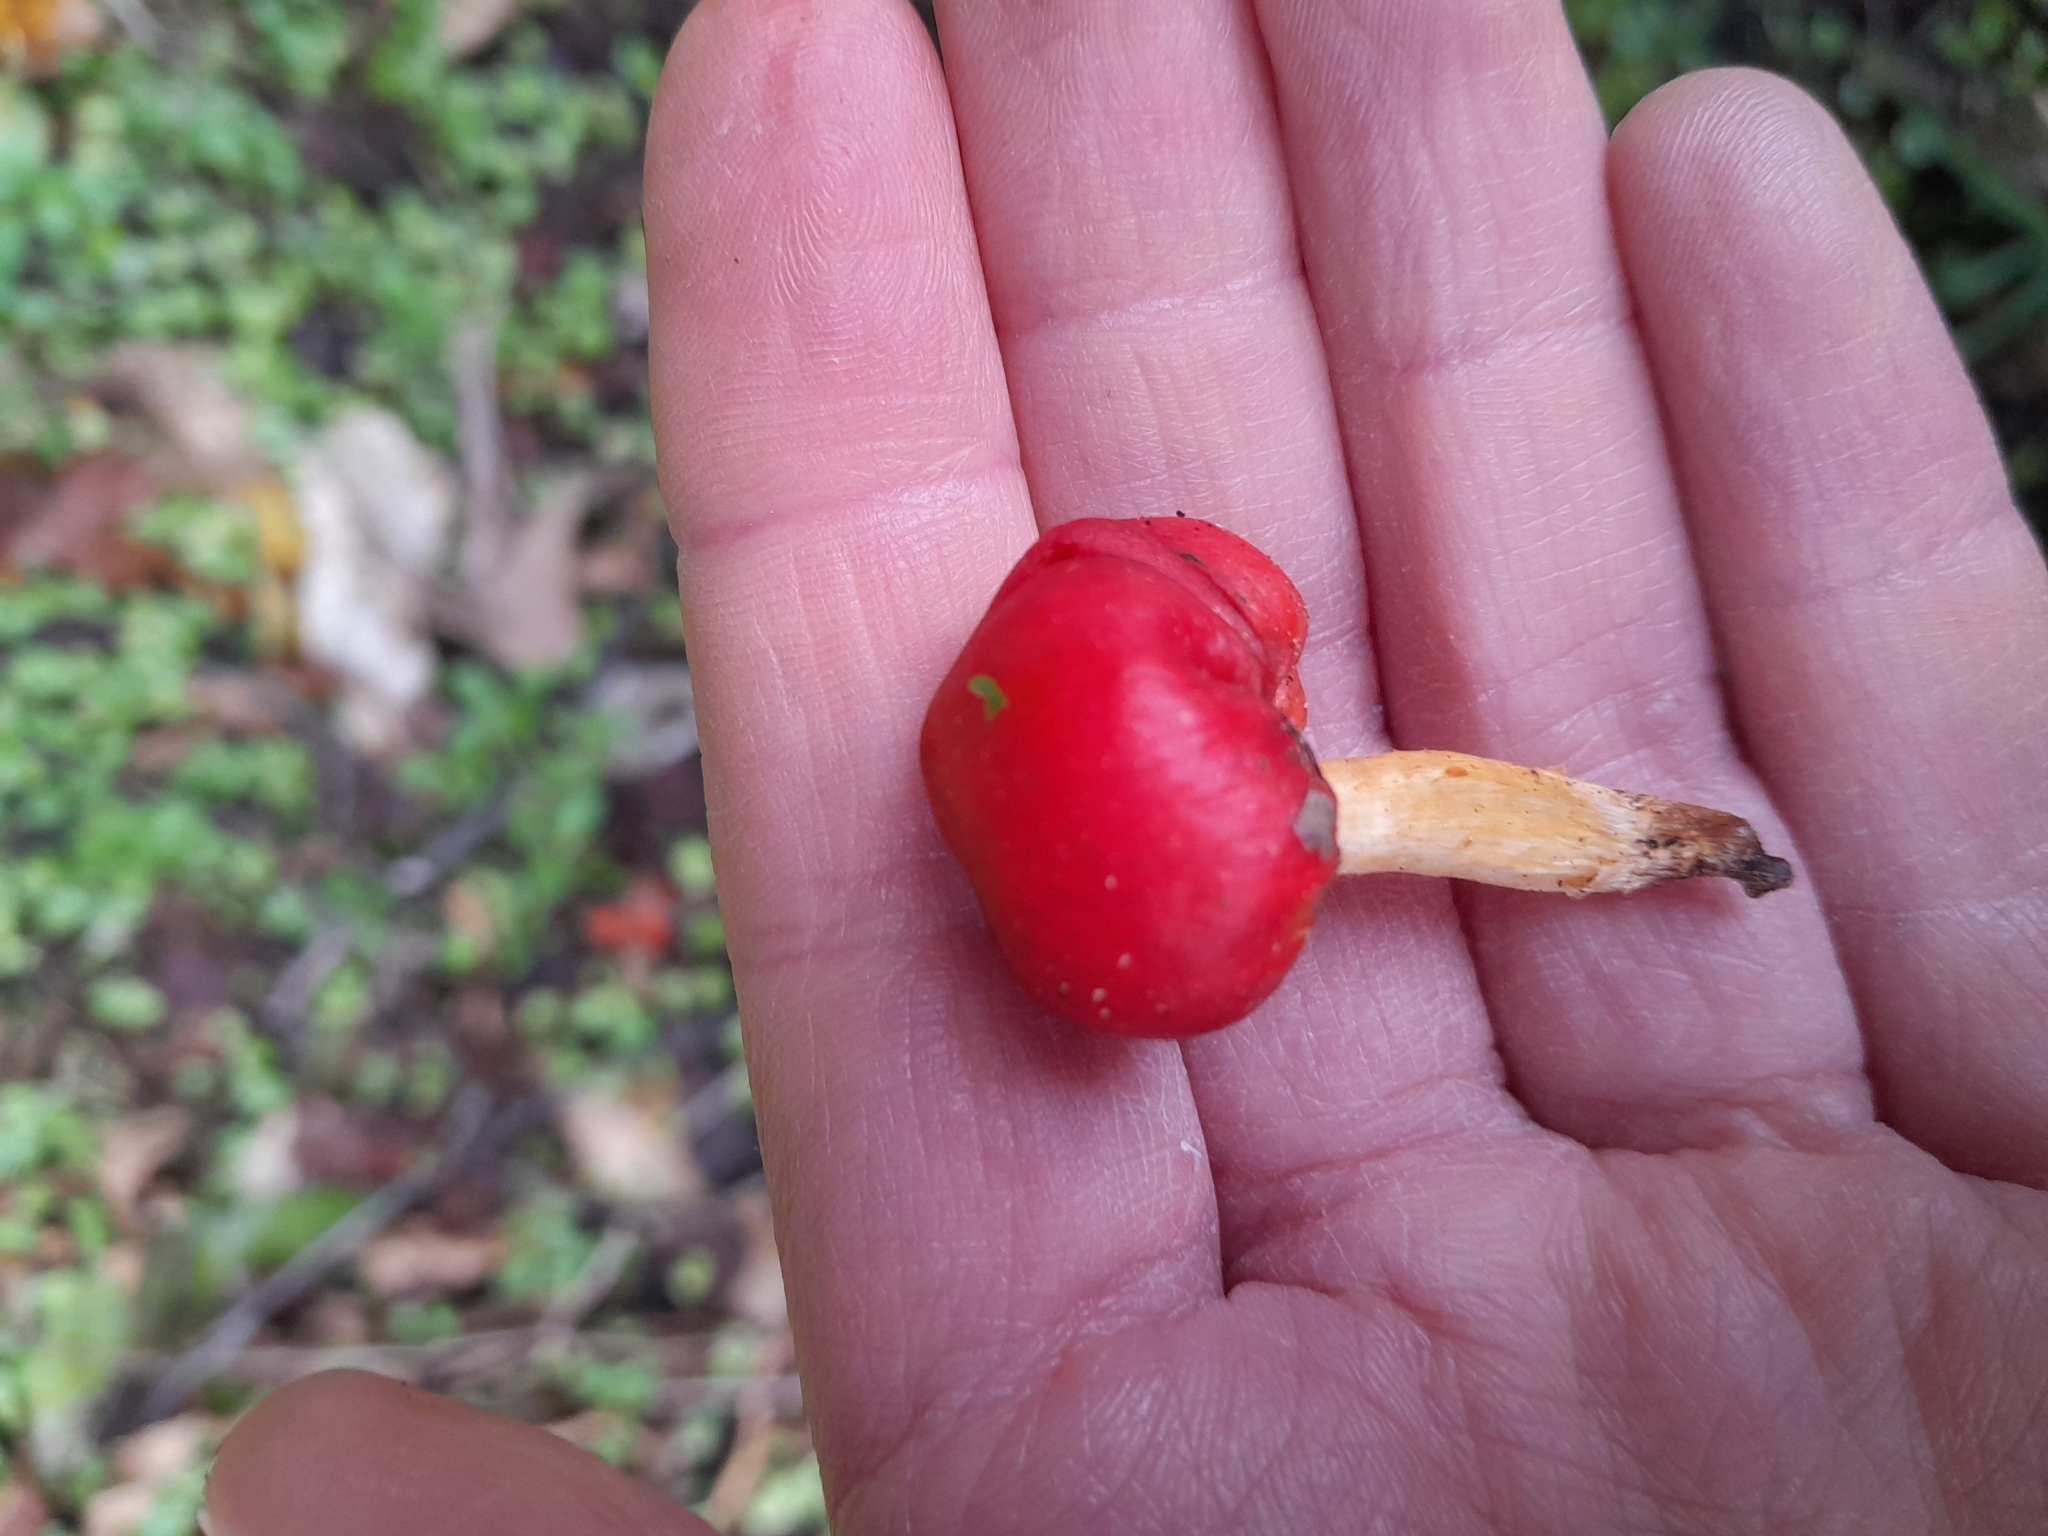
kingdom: Fungi
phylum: Basidiomycota
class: Agaricomycetes
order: Agaricales
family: Strophariaceae
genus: Leratiomyces
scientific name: Leratiomyces erythrocephalus
